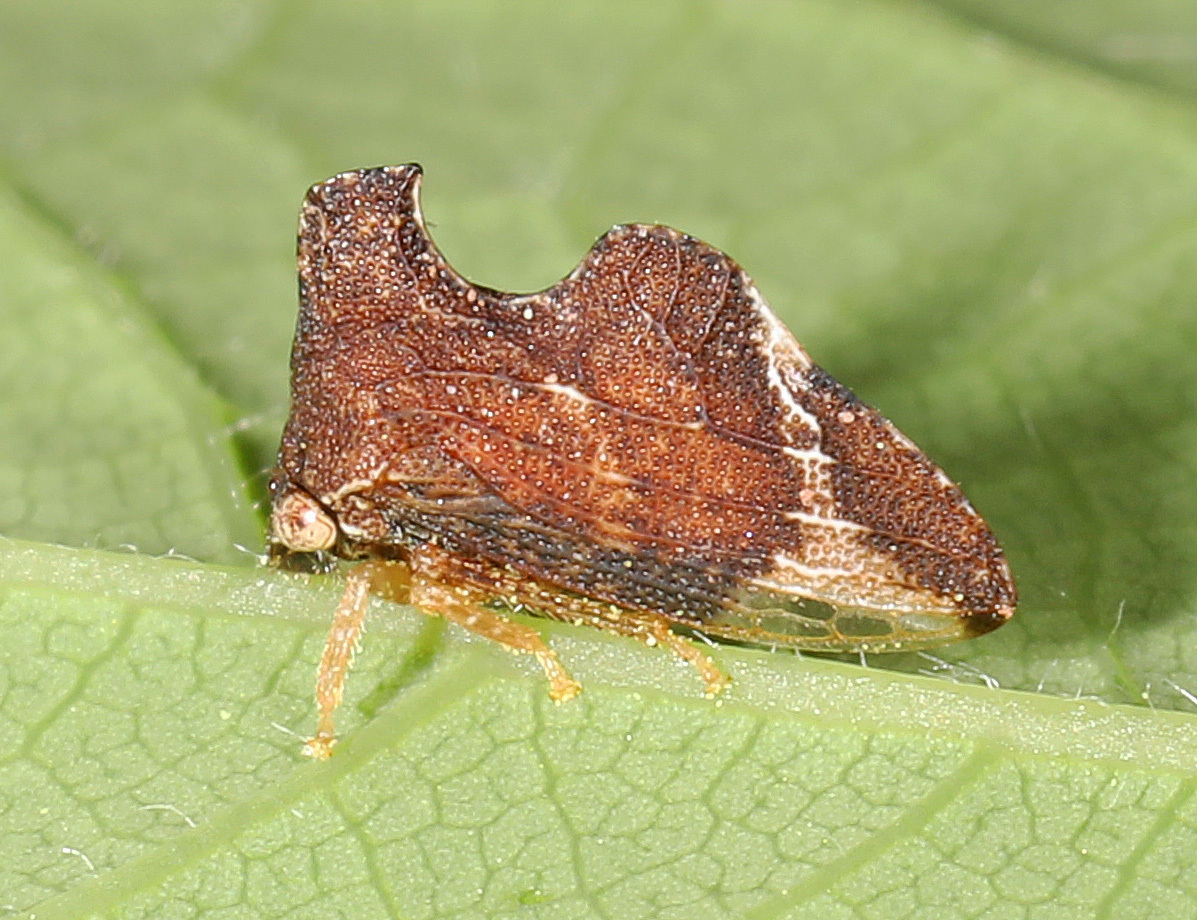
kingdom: Animalia
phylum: Arthropoda
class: Insecta
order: Hemiptera
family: Membracidae
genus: Entylia
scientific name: Entylia carinata
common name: Keeled treehopper
